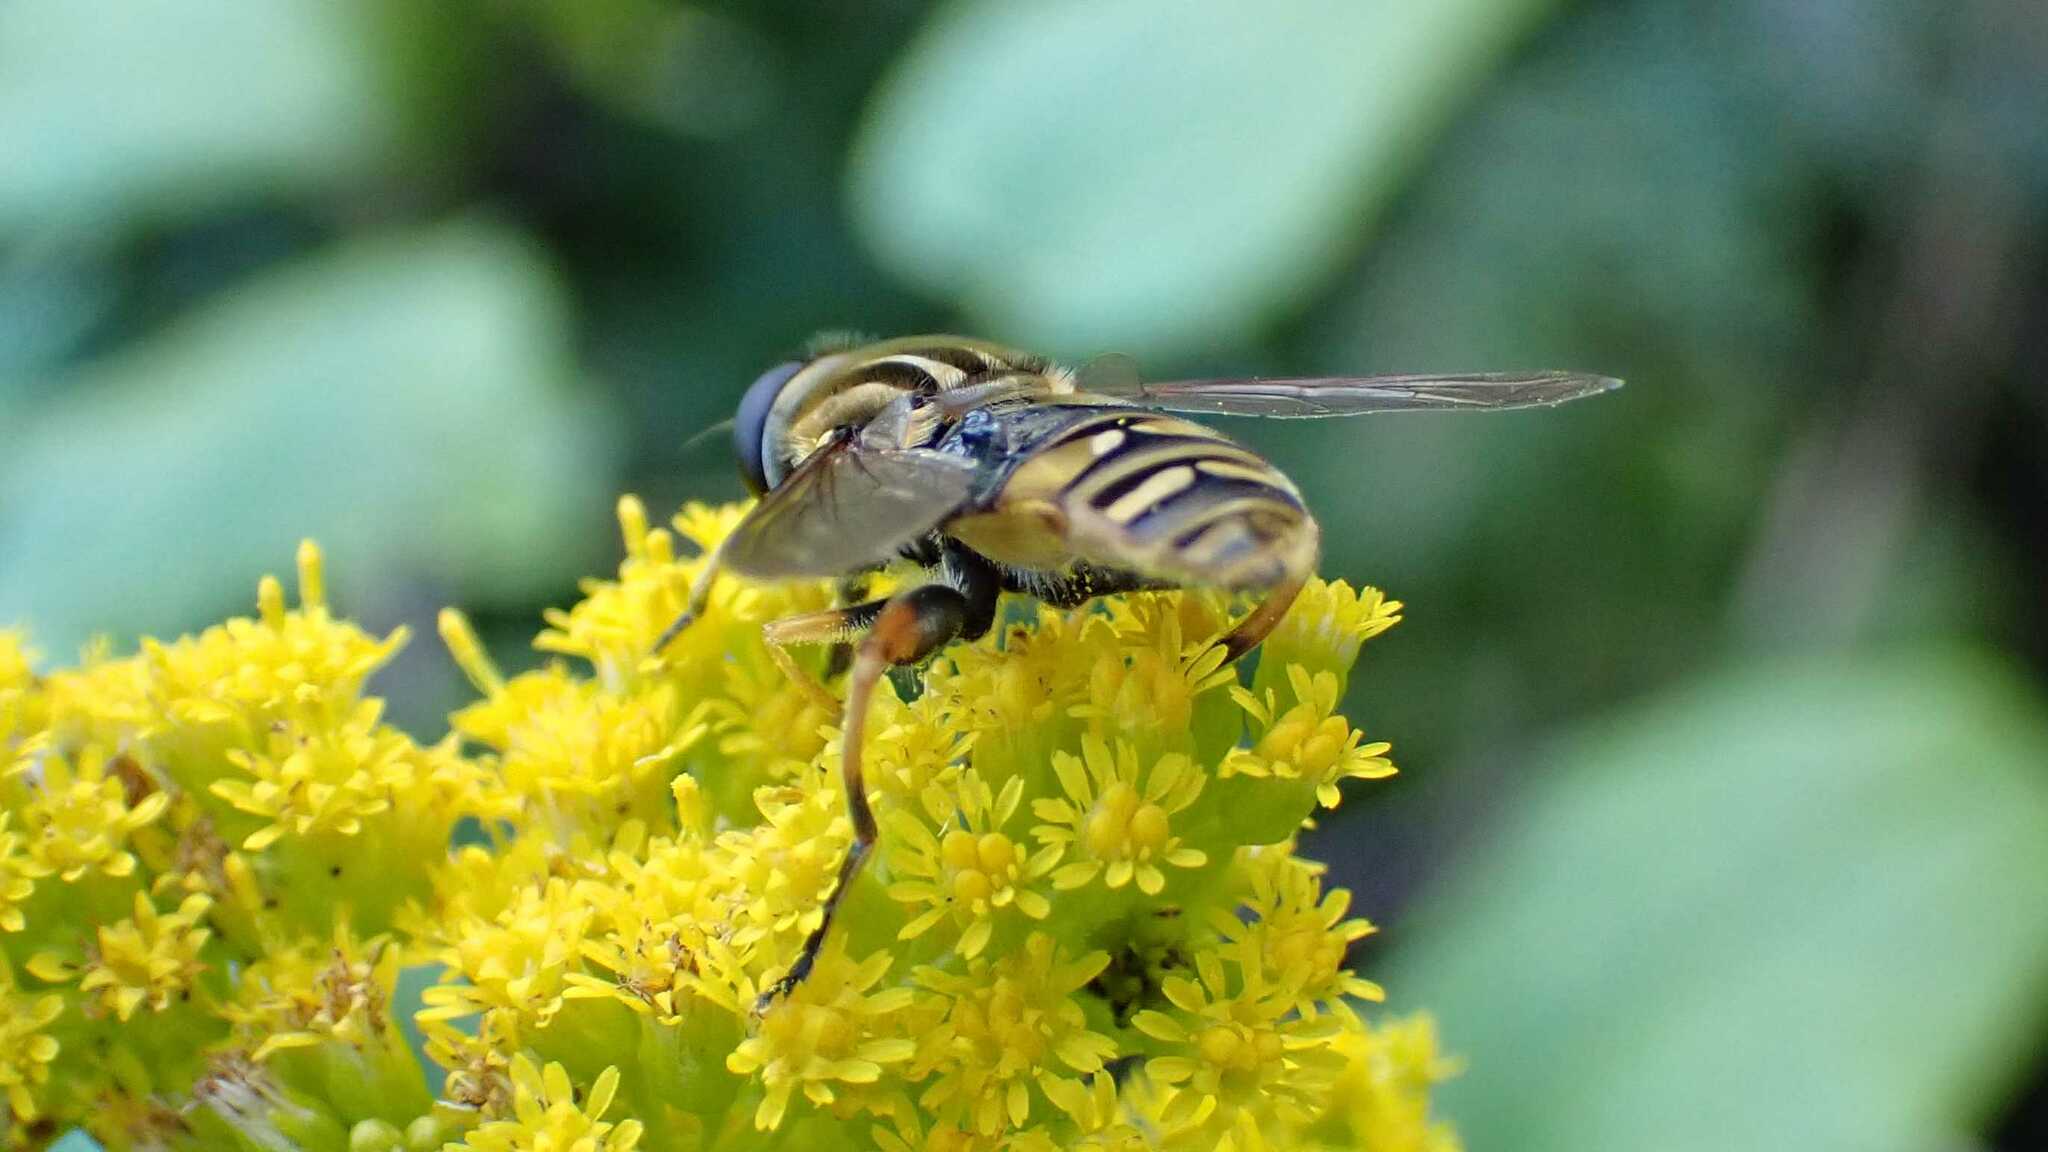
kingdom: Animalia
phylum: Arthropoda
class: Insecta
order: Diptera
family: Syrphidae
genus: Helophilus
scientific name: Helophilus pendulus
